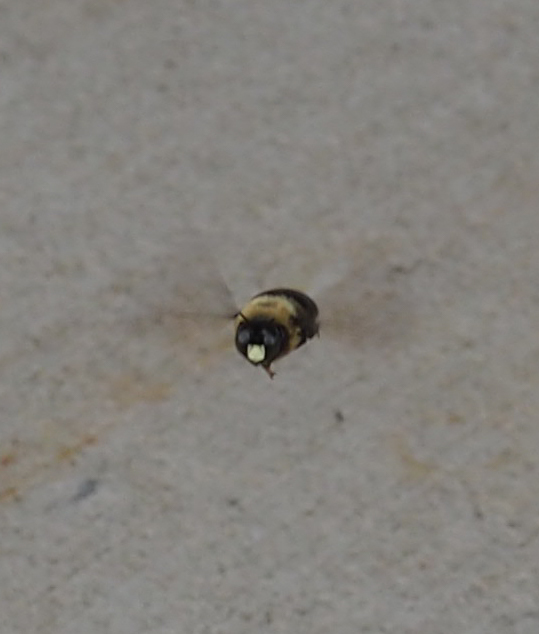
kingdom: Animalia
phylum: Arthropoda
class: Insecta
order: Hymenoptera
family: Apidae
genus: Xylocopa
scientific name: Xylocopa virginica
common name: Carpenter bee
